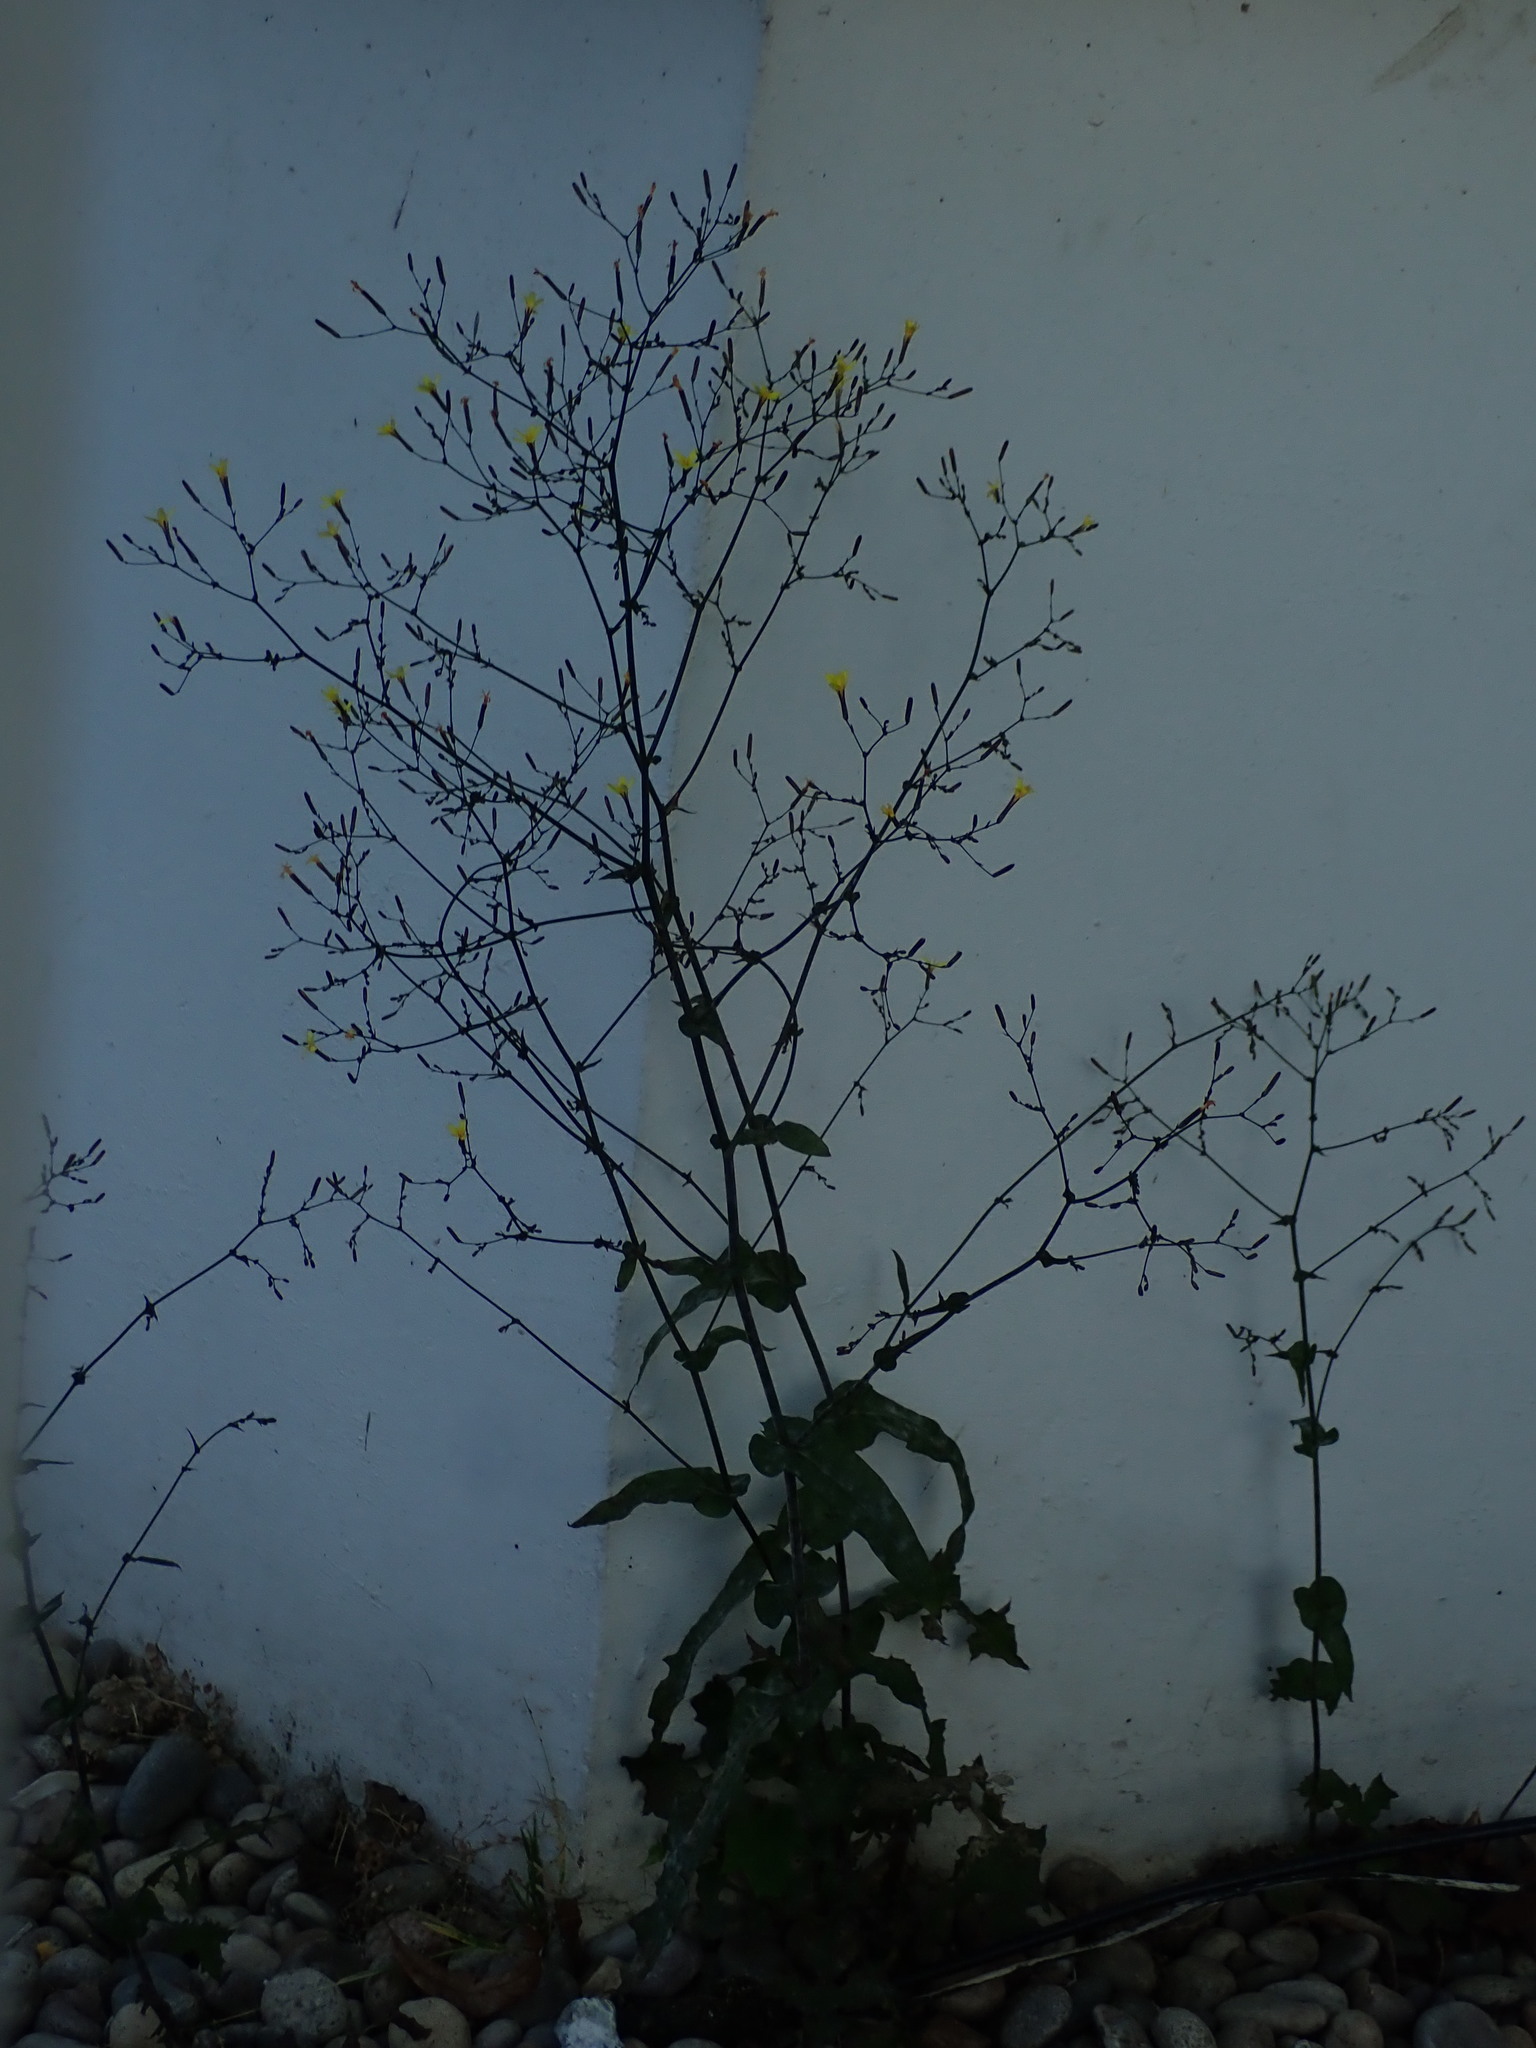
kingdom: Plantae
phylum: Tracheophyta
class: Magnoliopsida
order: Asterales
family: Asteraceae
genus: Mycelis
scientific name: Mycelis muralis
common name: Wall lettuce
